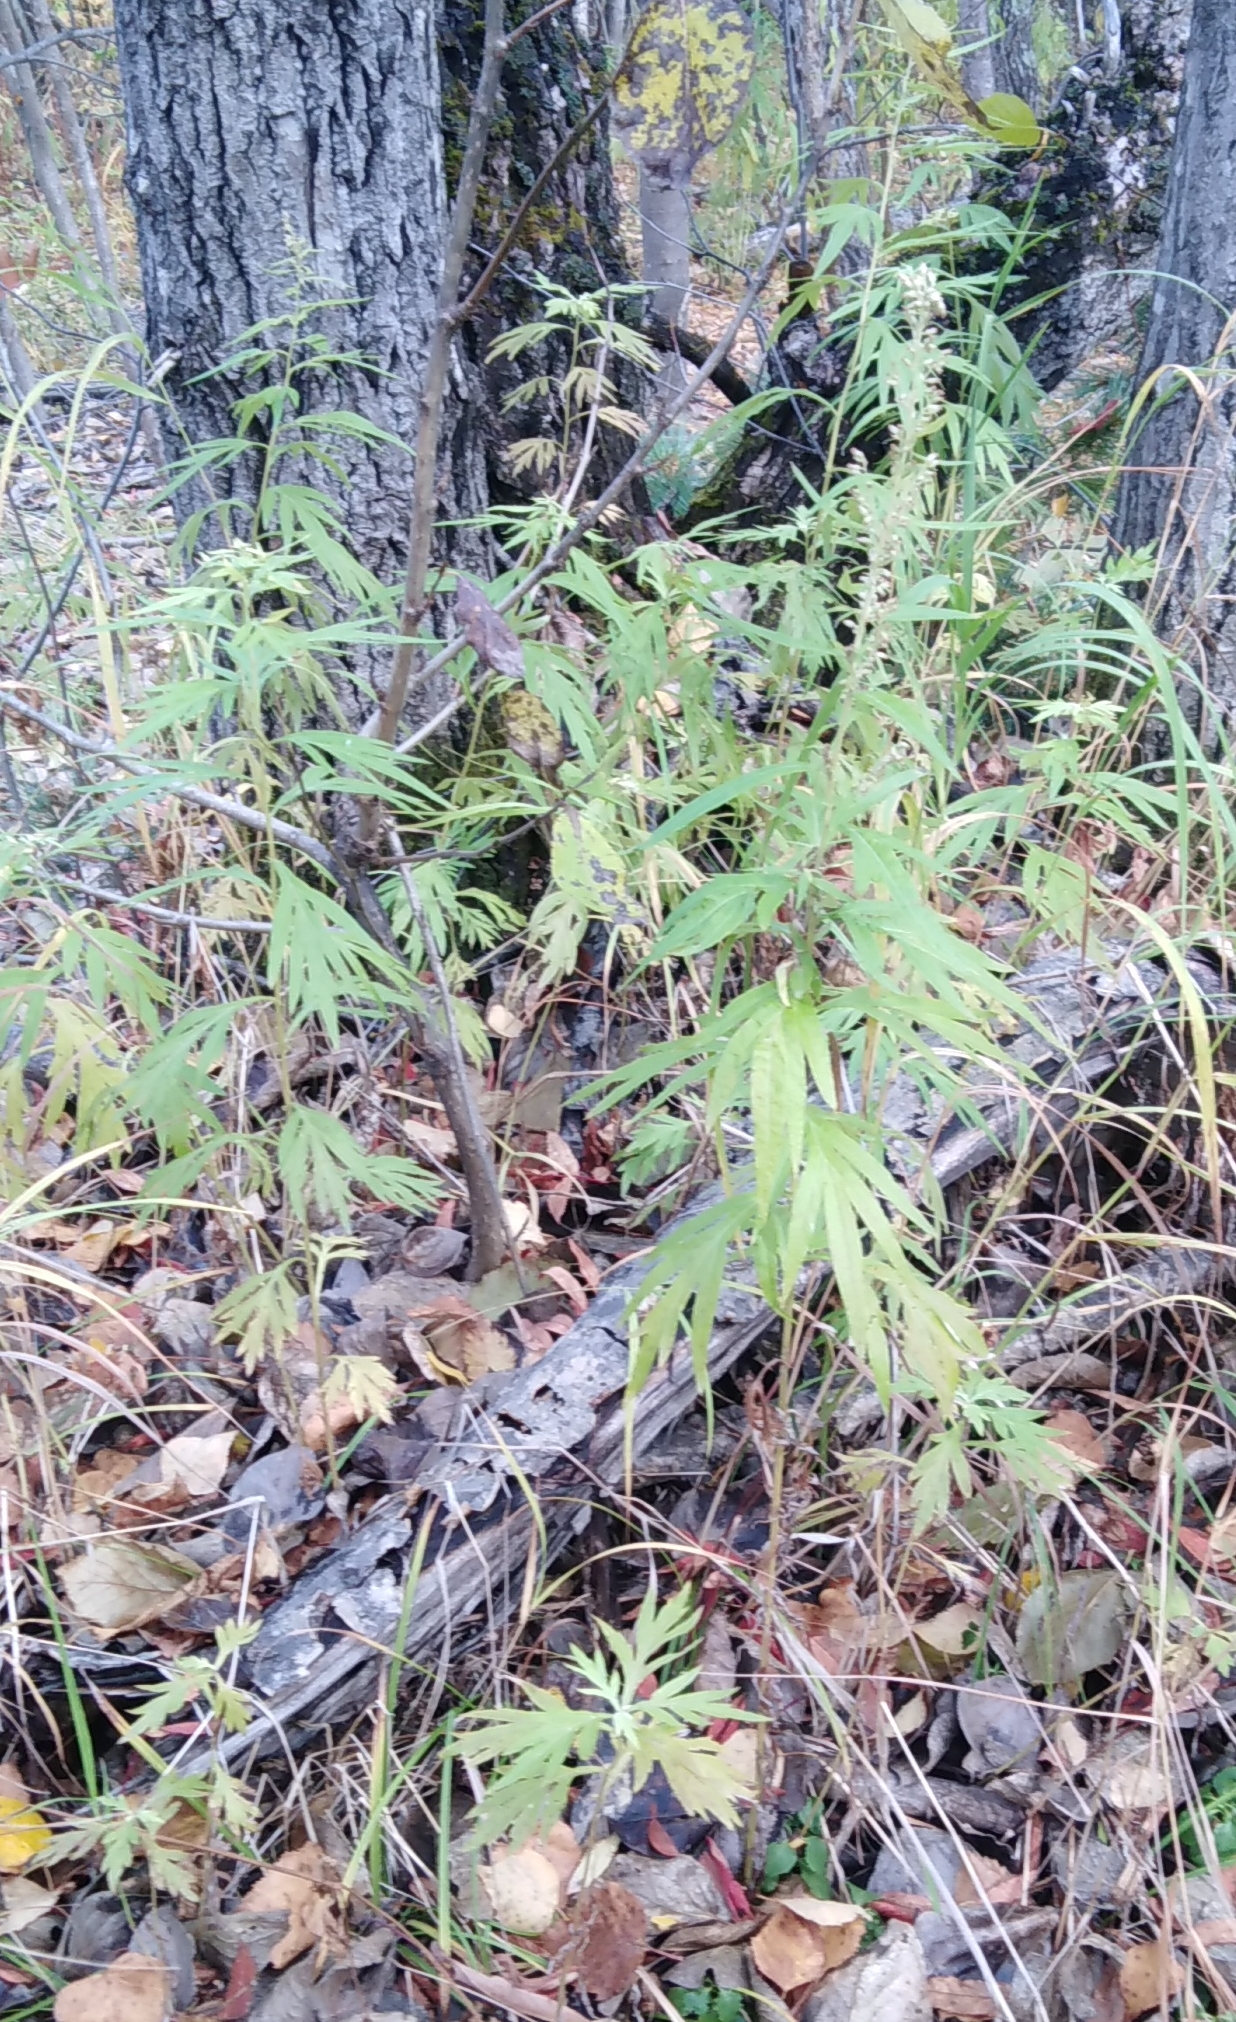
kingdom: Plantae
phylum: Tracheophyta
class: Magnoliopsida
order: Asterales
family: Asteraceae
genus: Artemisia
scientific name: Artemisia vulgaris
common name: Mugwort
